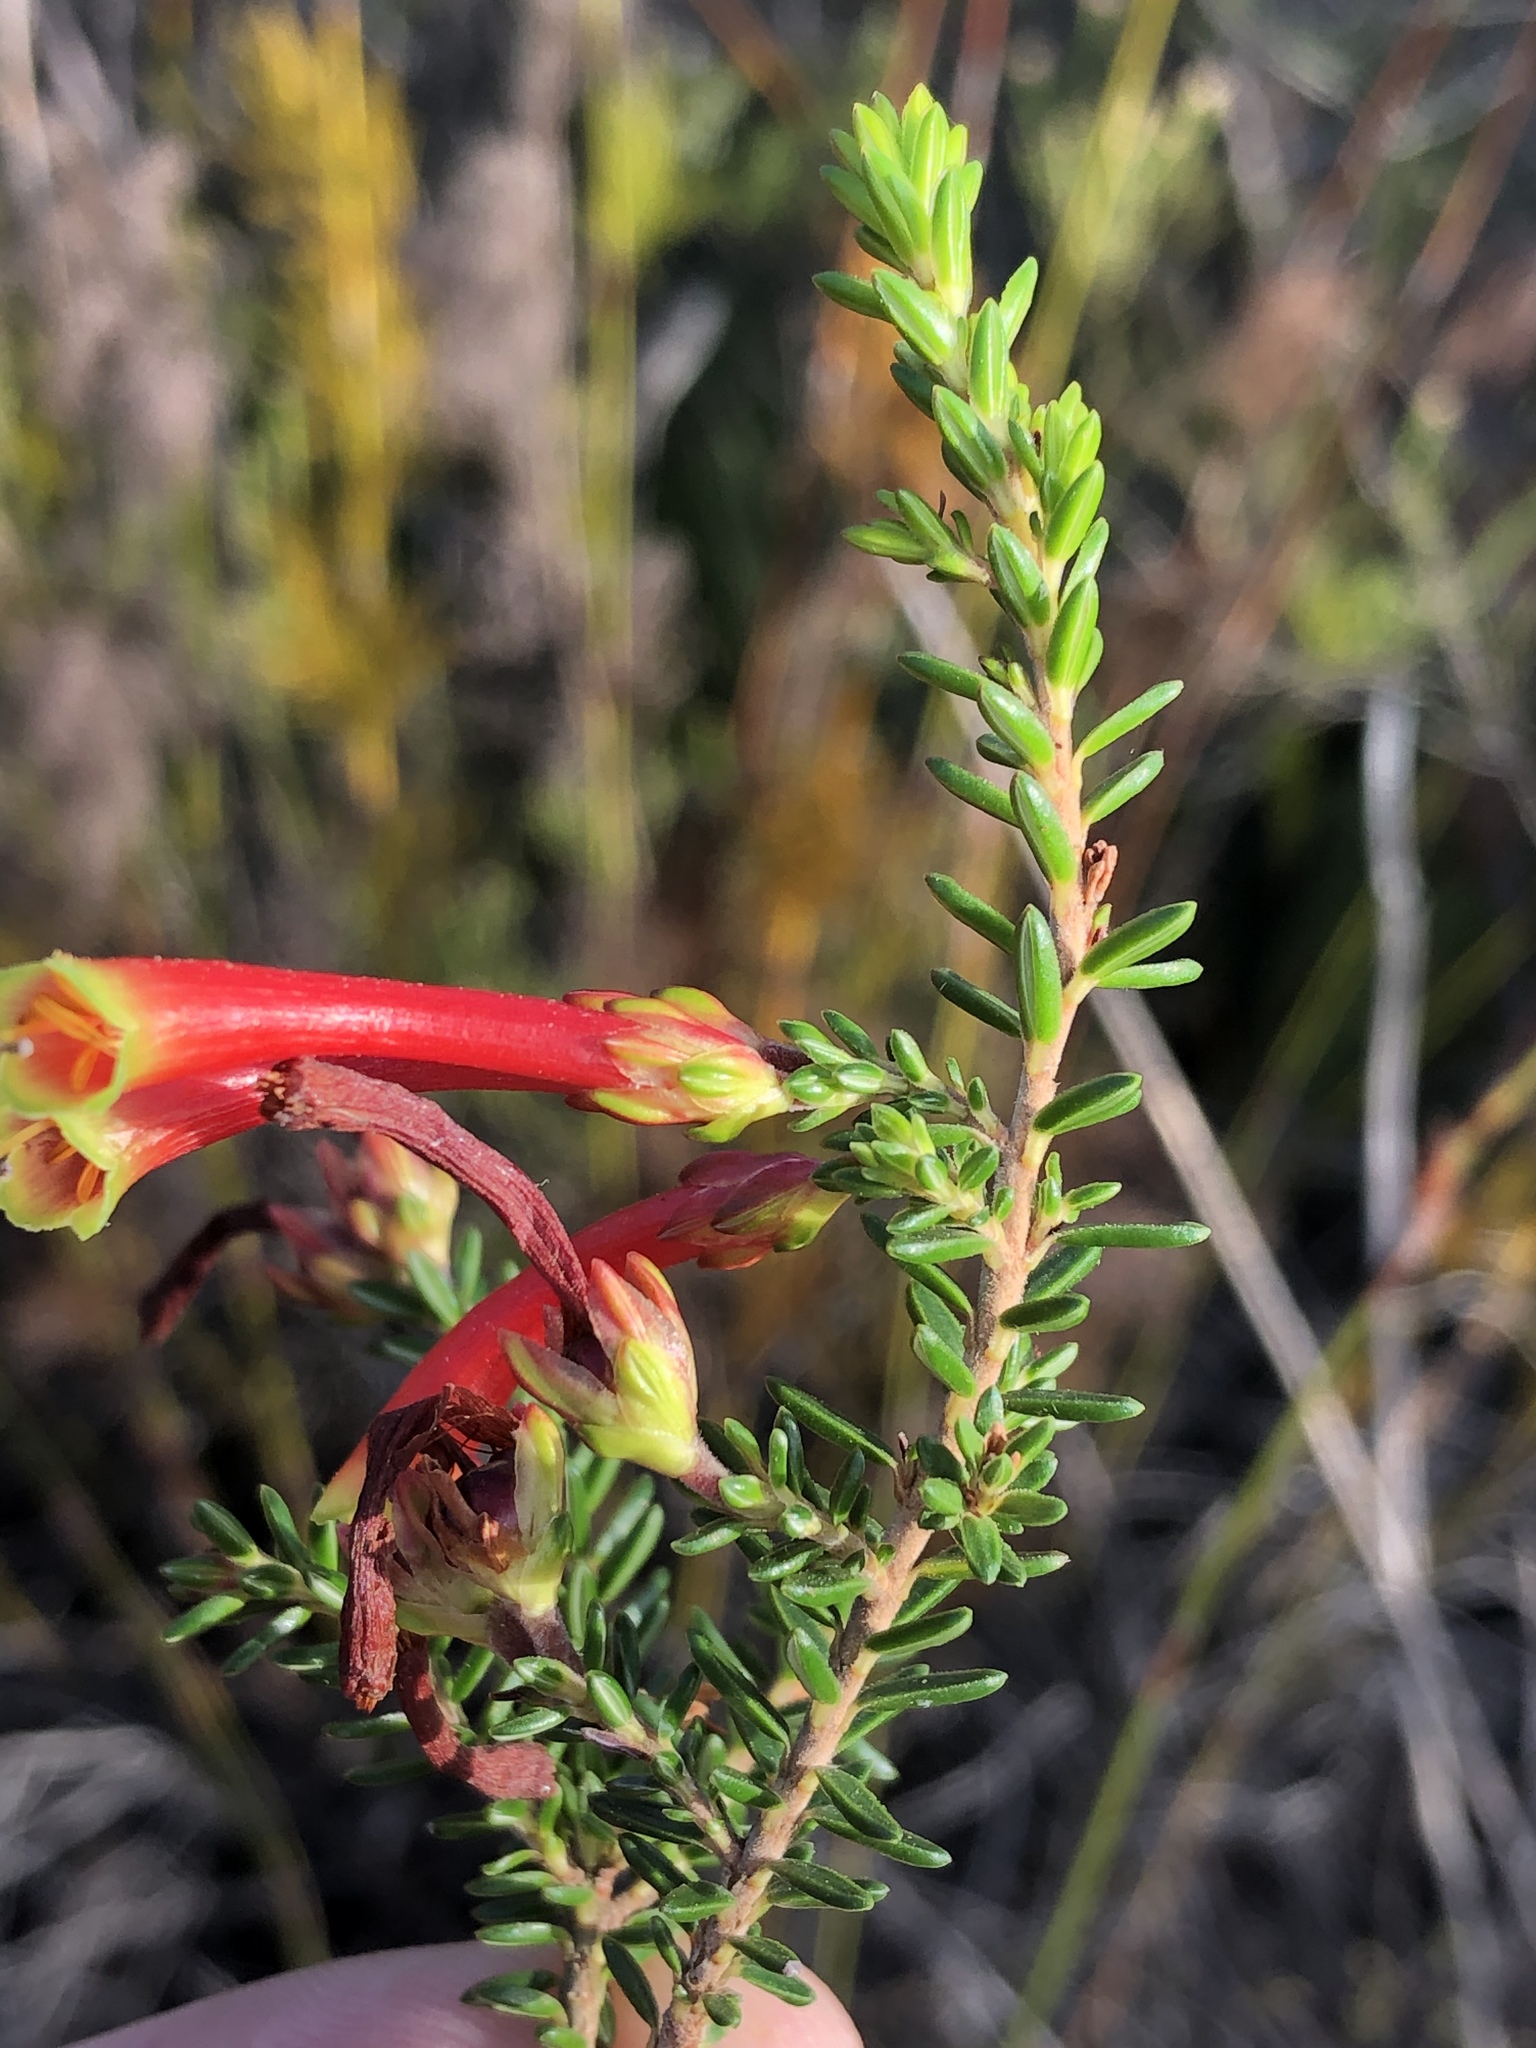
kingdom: Plantae
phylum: Tracheophyta
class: Magnoliopsida
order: Ericales
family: Ericaceae
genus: Erica
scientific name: Erica discolor
